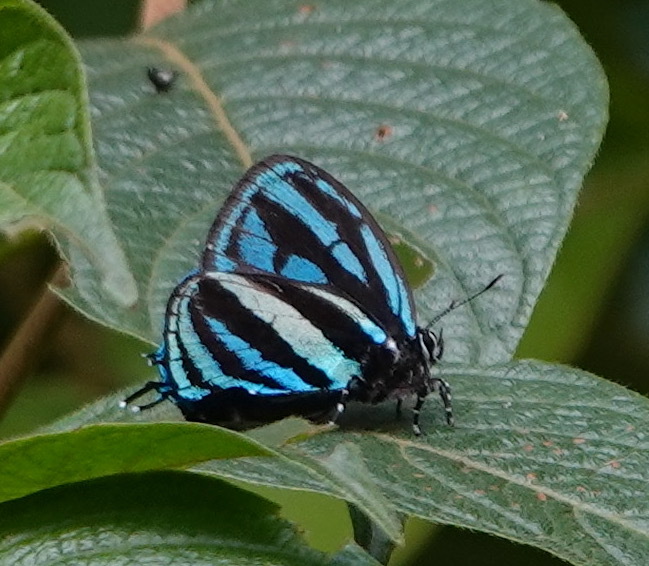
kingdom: Animalia
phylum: Arthropoda
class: Insecta
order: Lepidoptera
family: Lycaenidae
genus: Thestius
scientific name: Thestius
